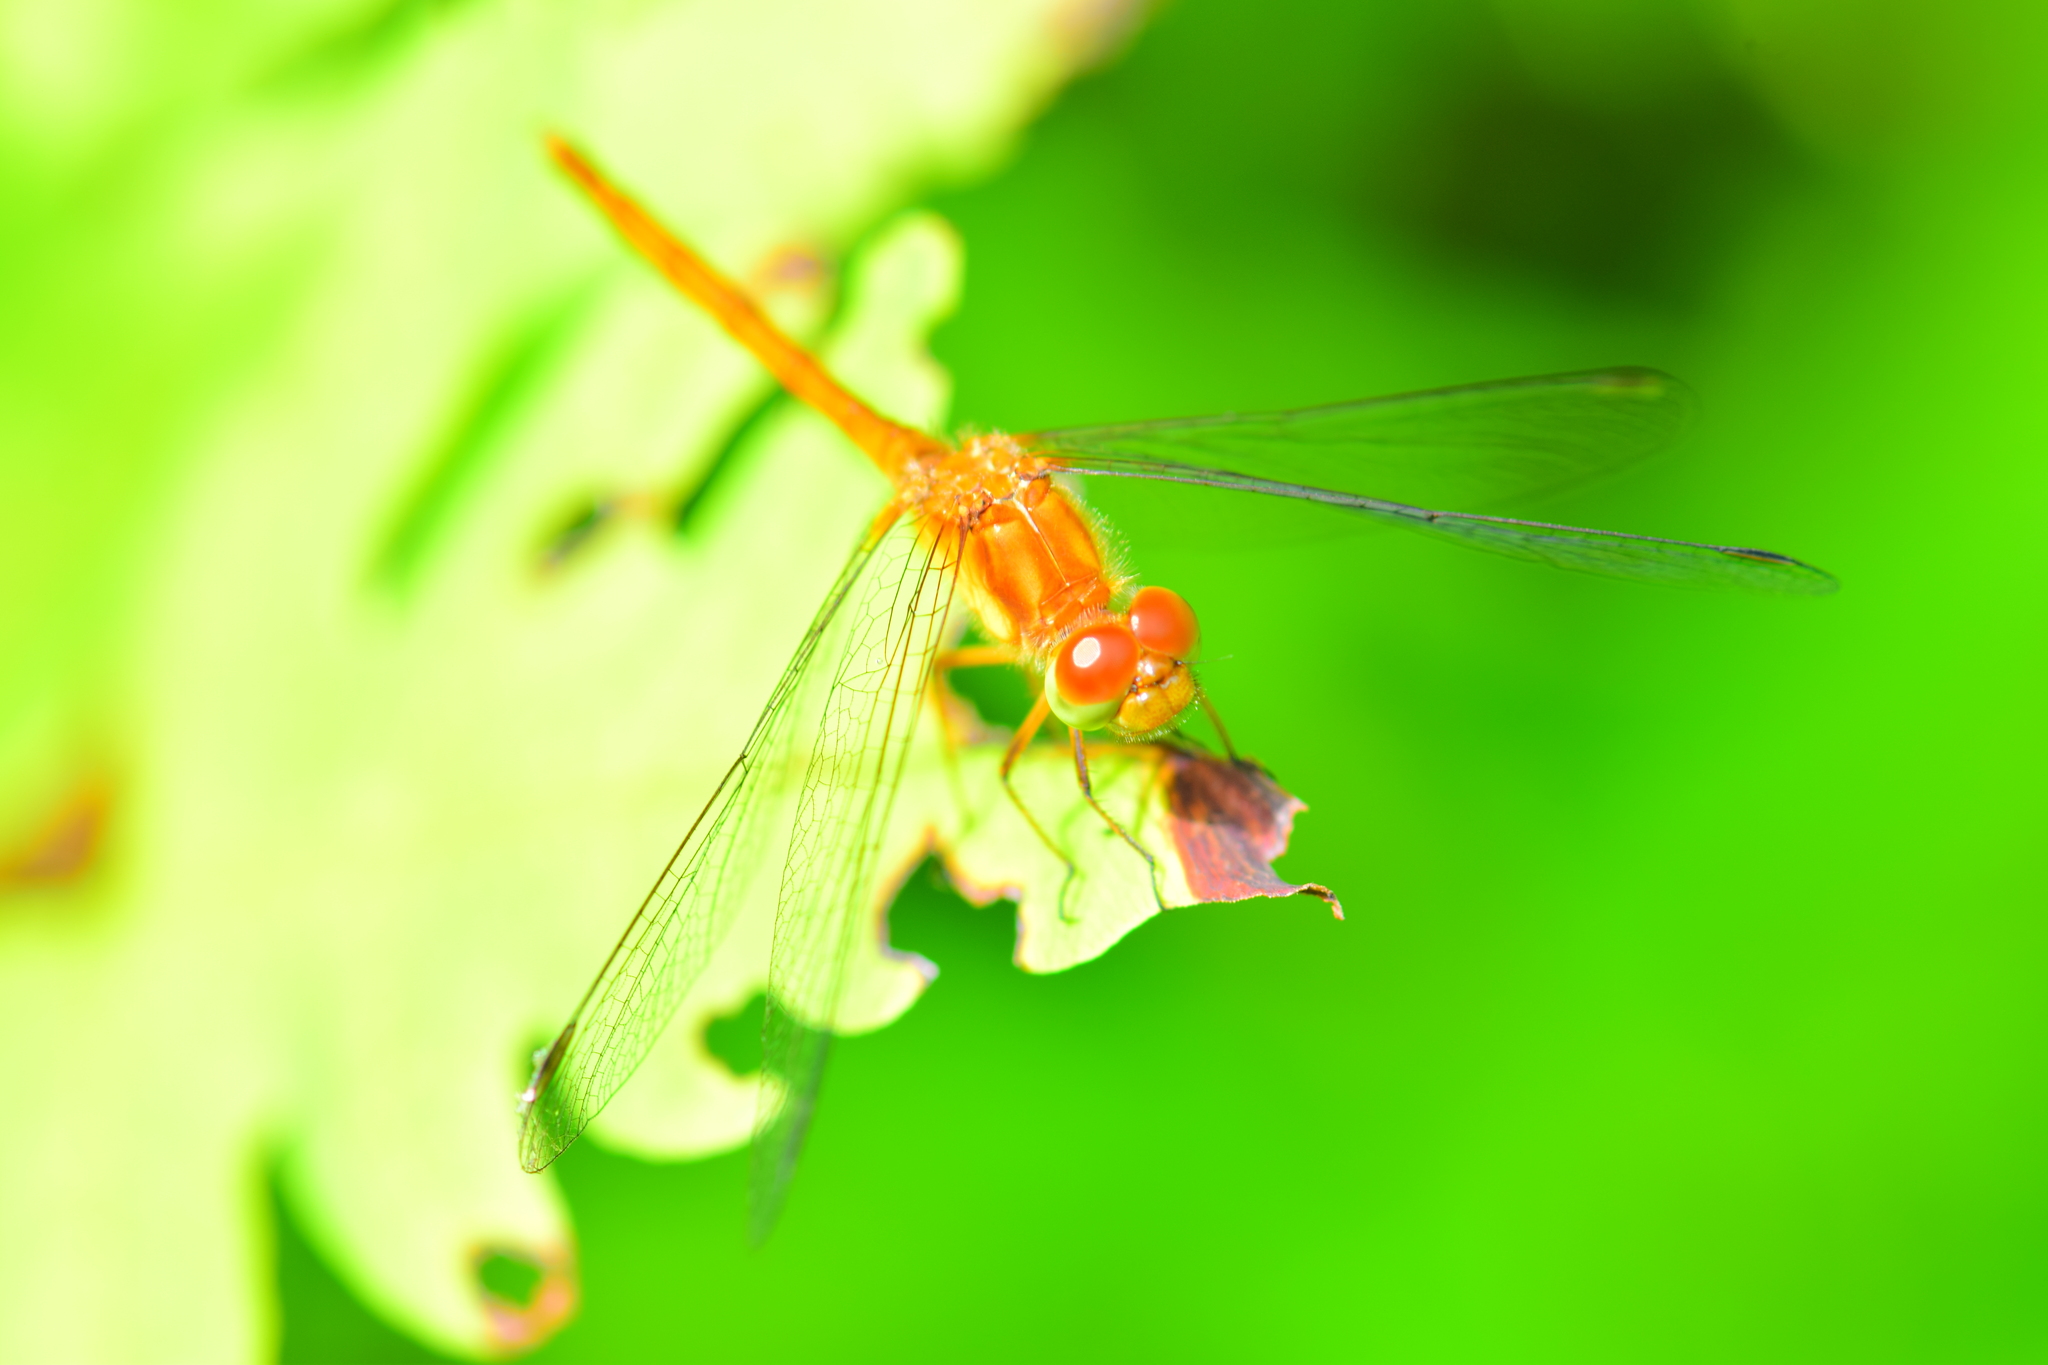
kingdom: Animalia
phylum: Arthropoda
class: Insecta
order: Odonata
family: Libellulidae
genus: Sympetrum
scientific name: Sympetrum vicinum
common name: Autumn meadowhawk
